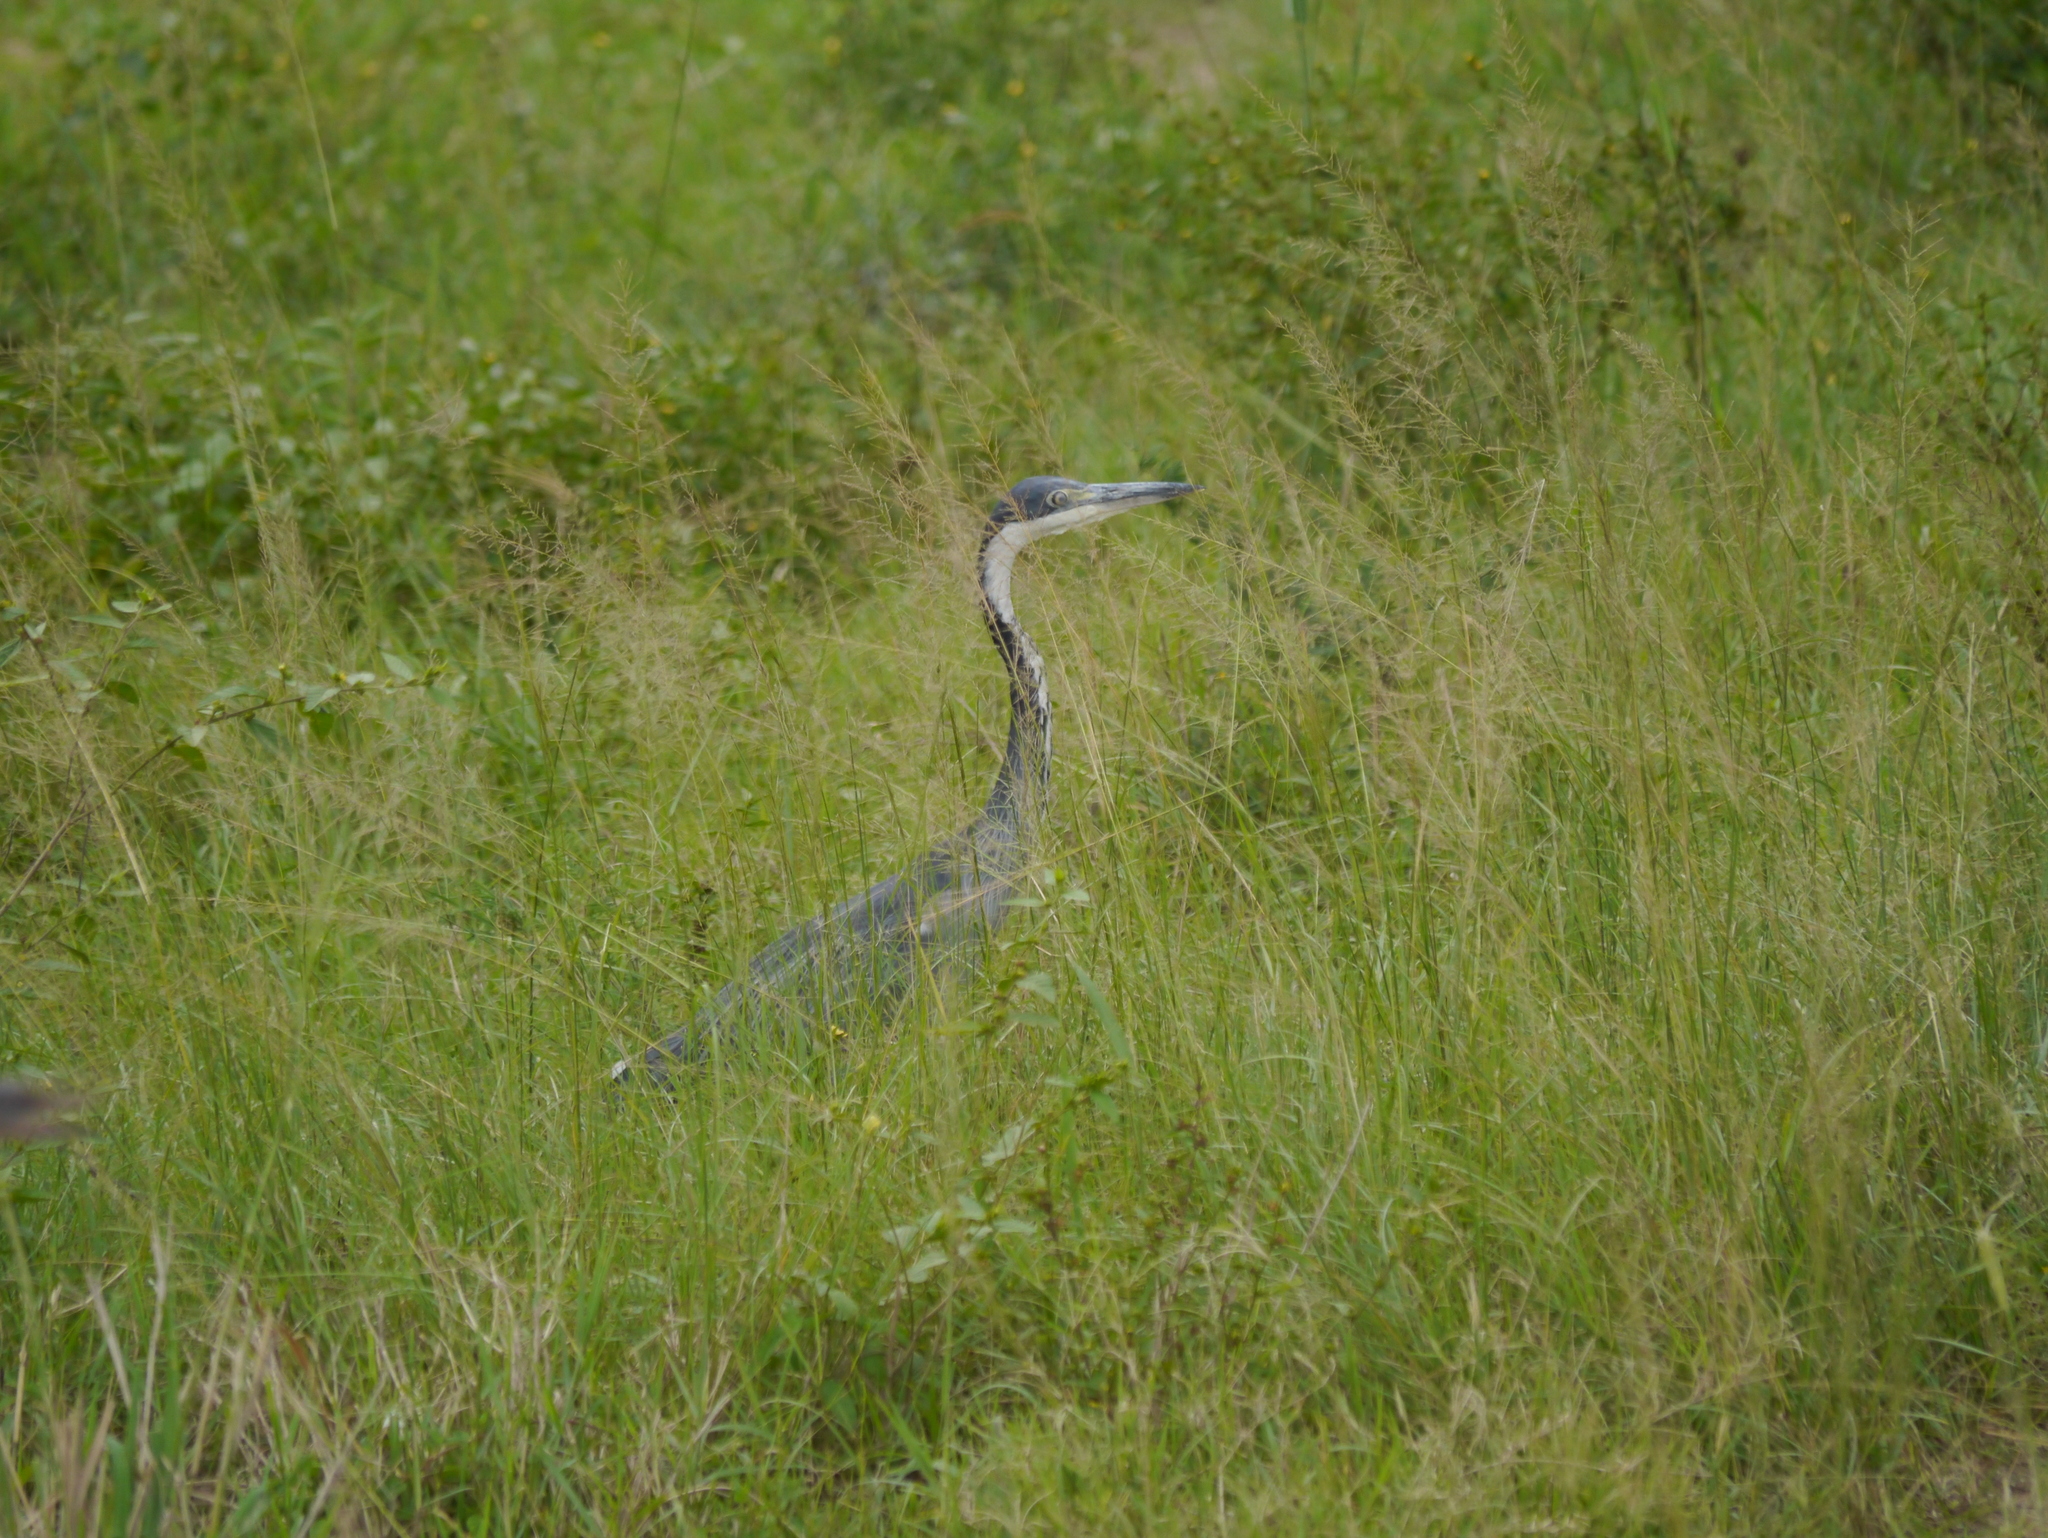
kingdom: Animalia
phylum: Chordata
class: Aves
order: Pelecaniformes
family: Ardeidae
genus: Ardea
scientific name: Ardea melanocephala
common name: Black-headed heron
